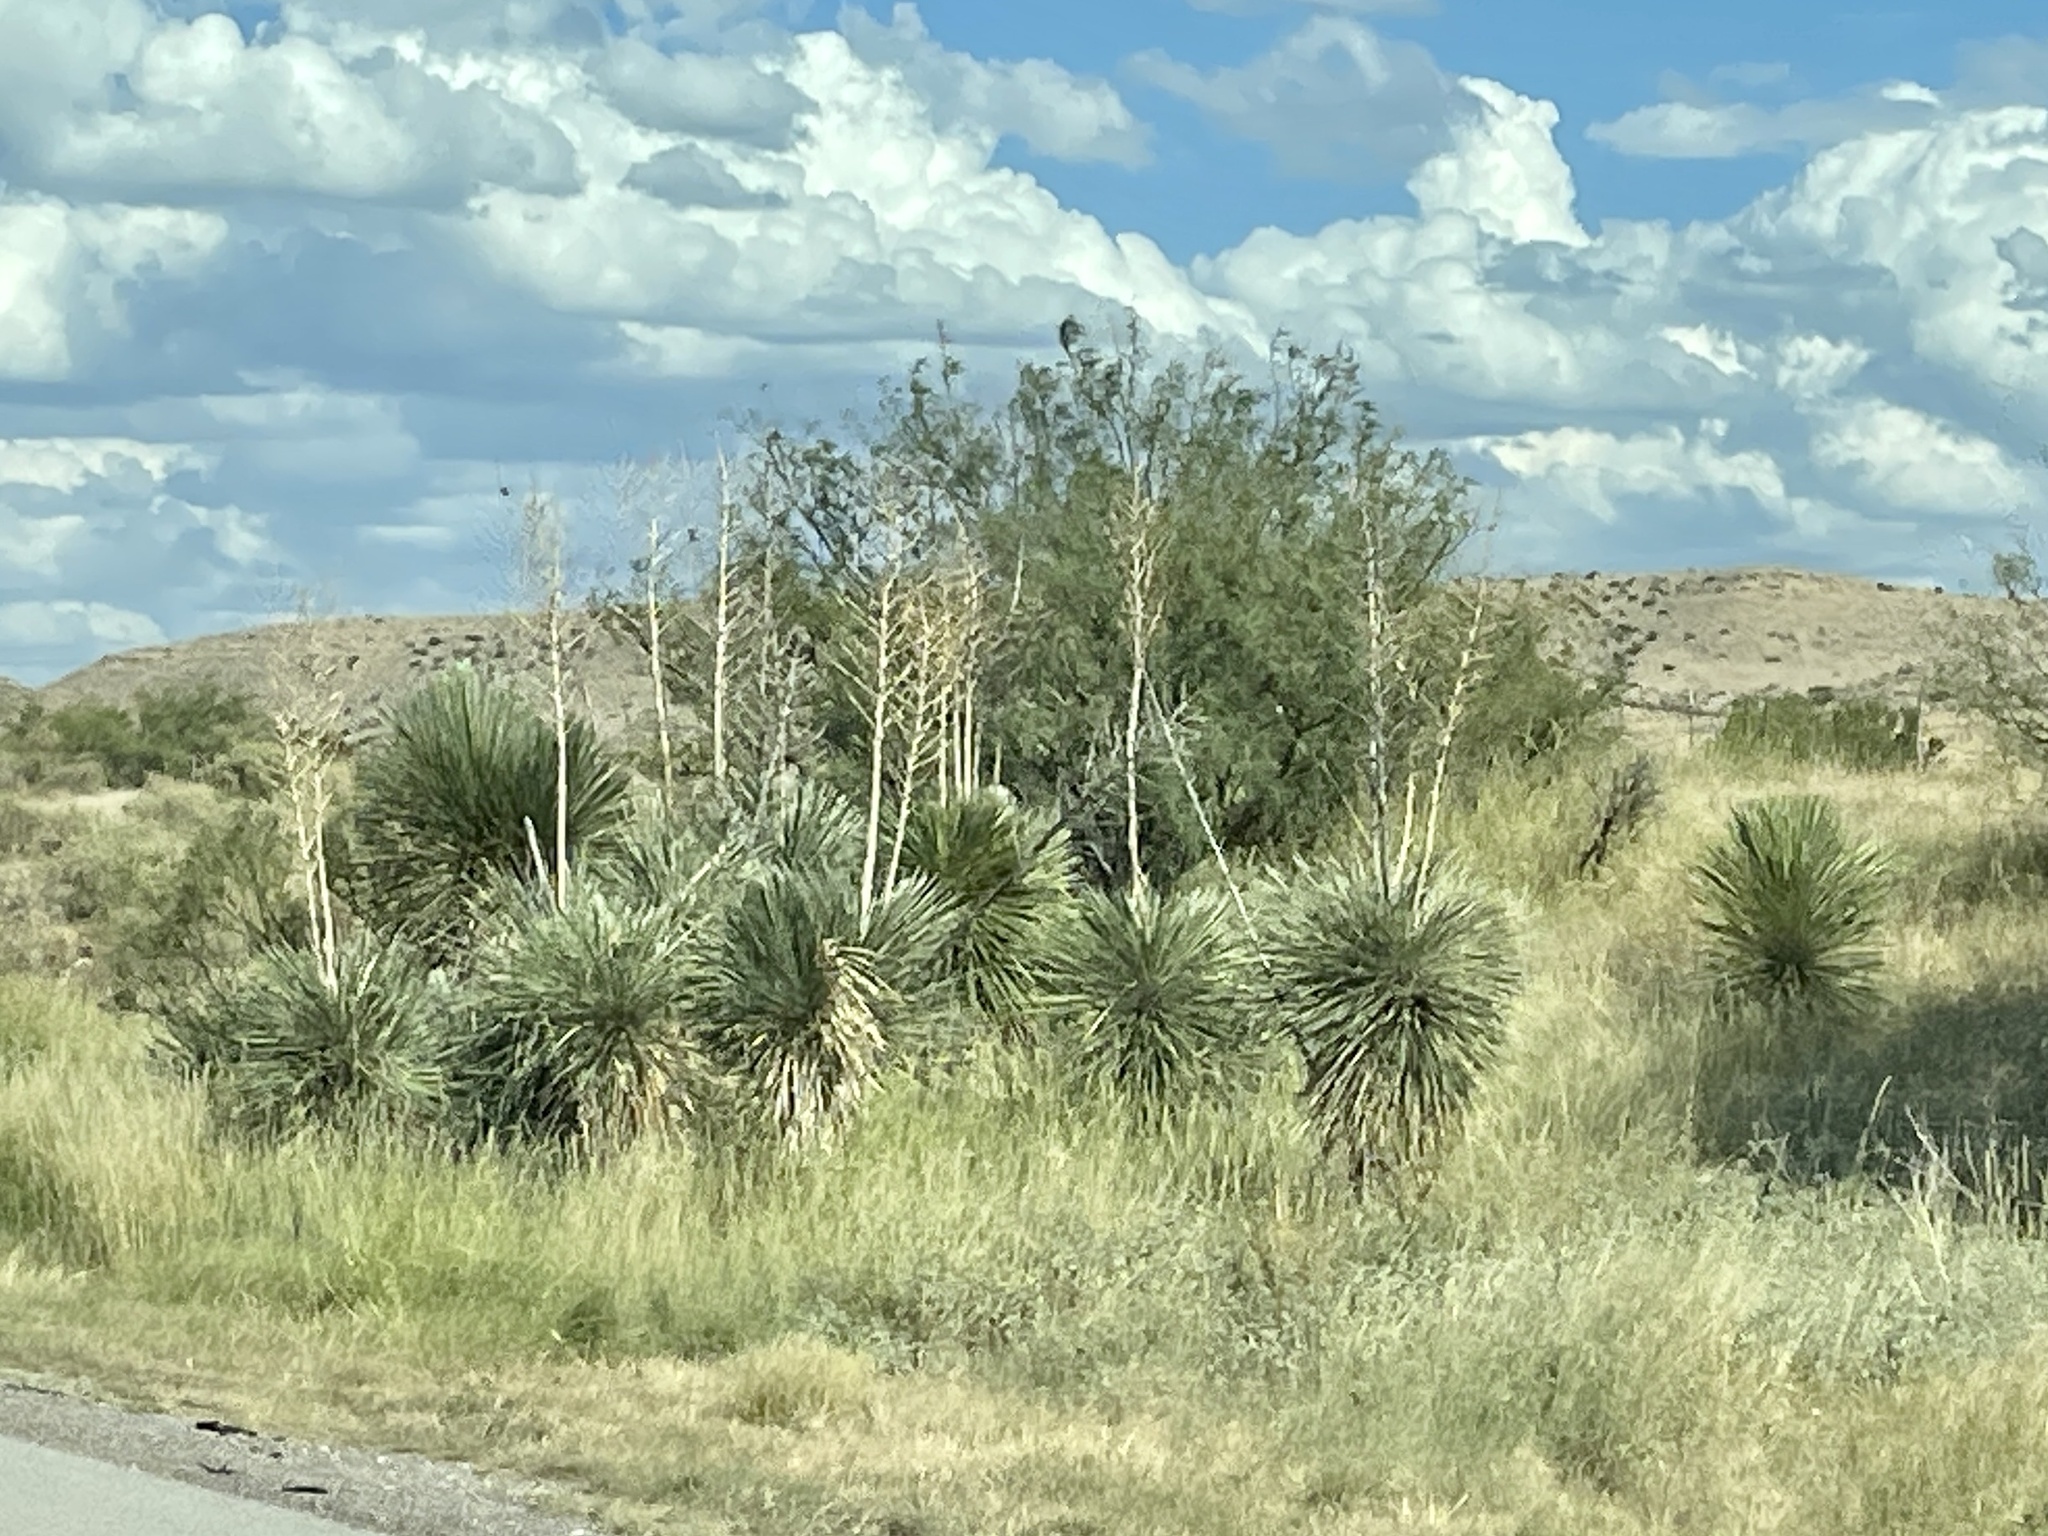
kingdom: Plantae
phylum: Tracheophyta
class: Liliopsida
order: Asparagales
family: Asparagaceae
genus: Yucca
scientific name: Yucca elata
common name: Palmella
